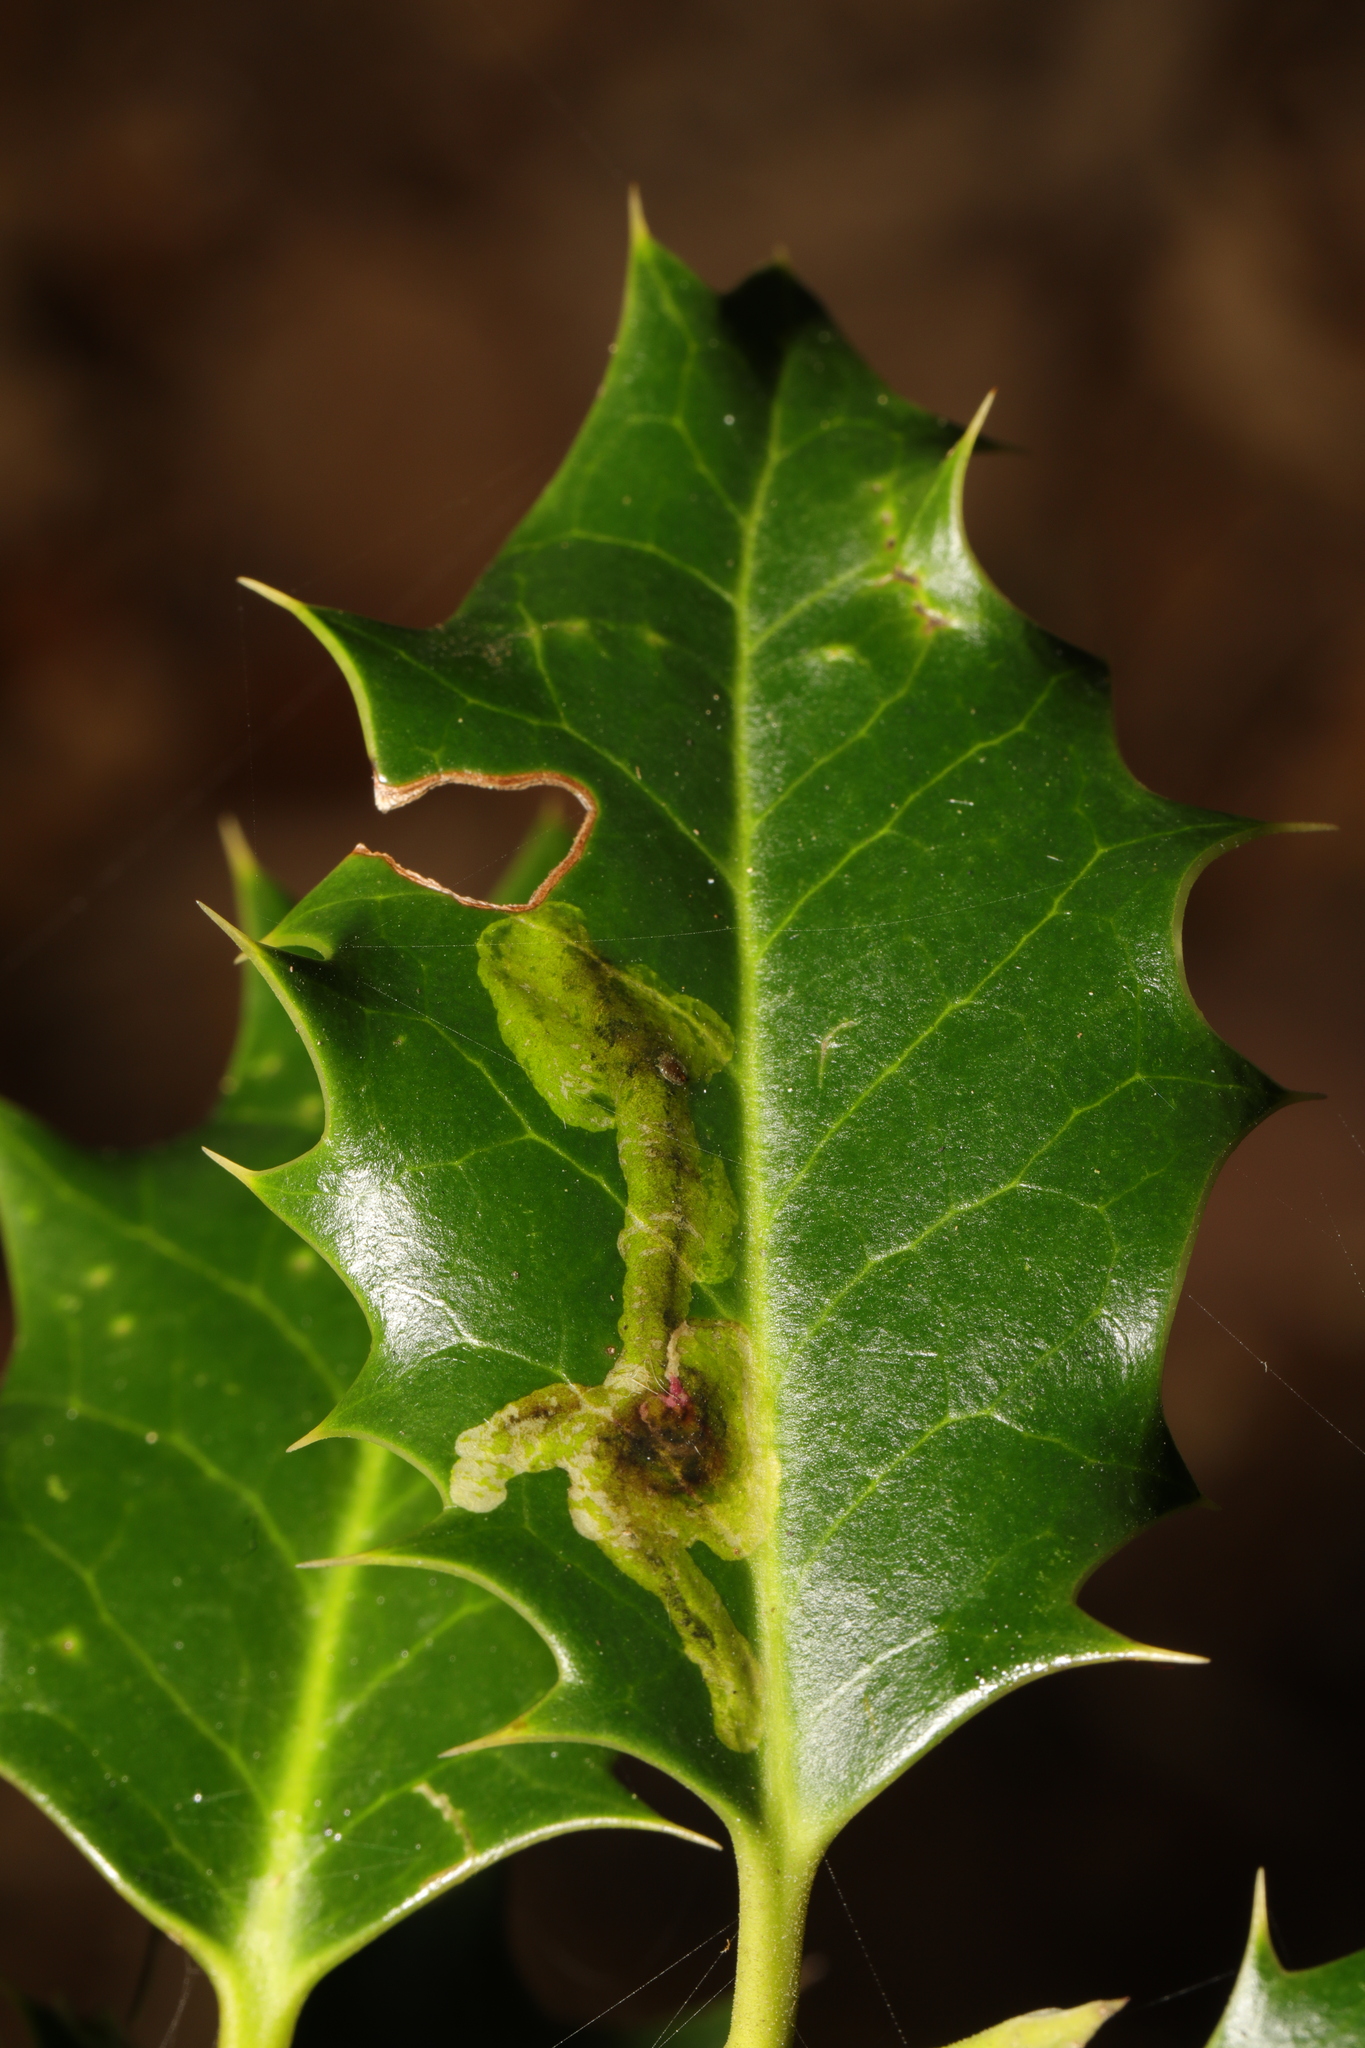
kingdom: Animalia
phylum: Arthropoda
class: Insecta
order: Diptera
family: Agromyzidae
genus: Phytomyza
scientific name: Phytomyza ilicis
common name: Holly leafminer
